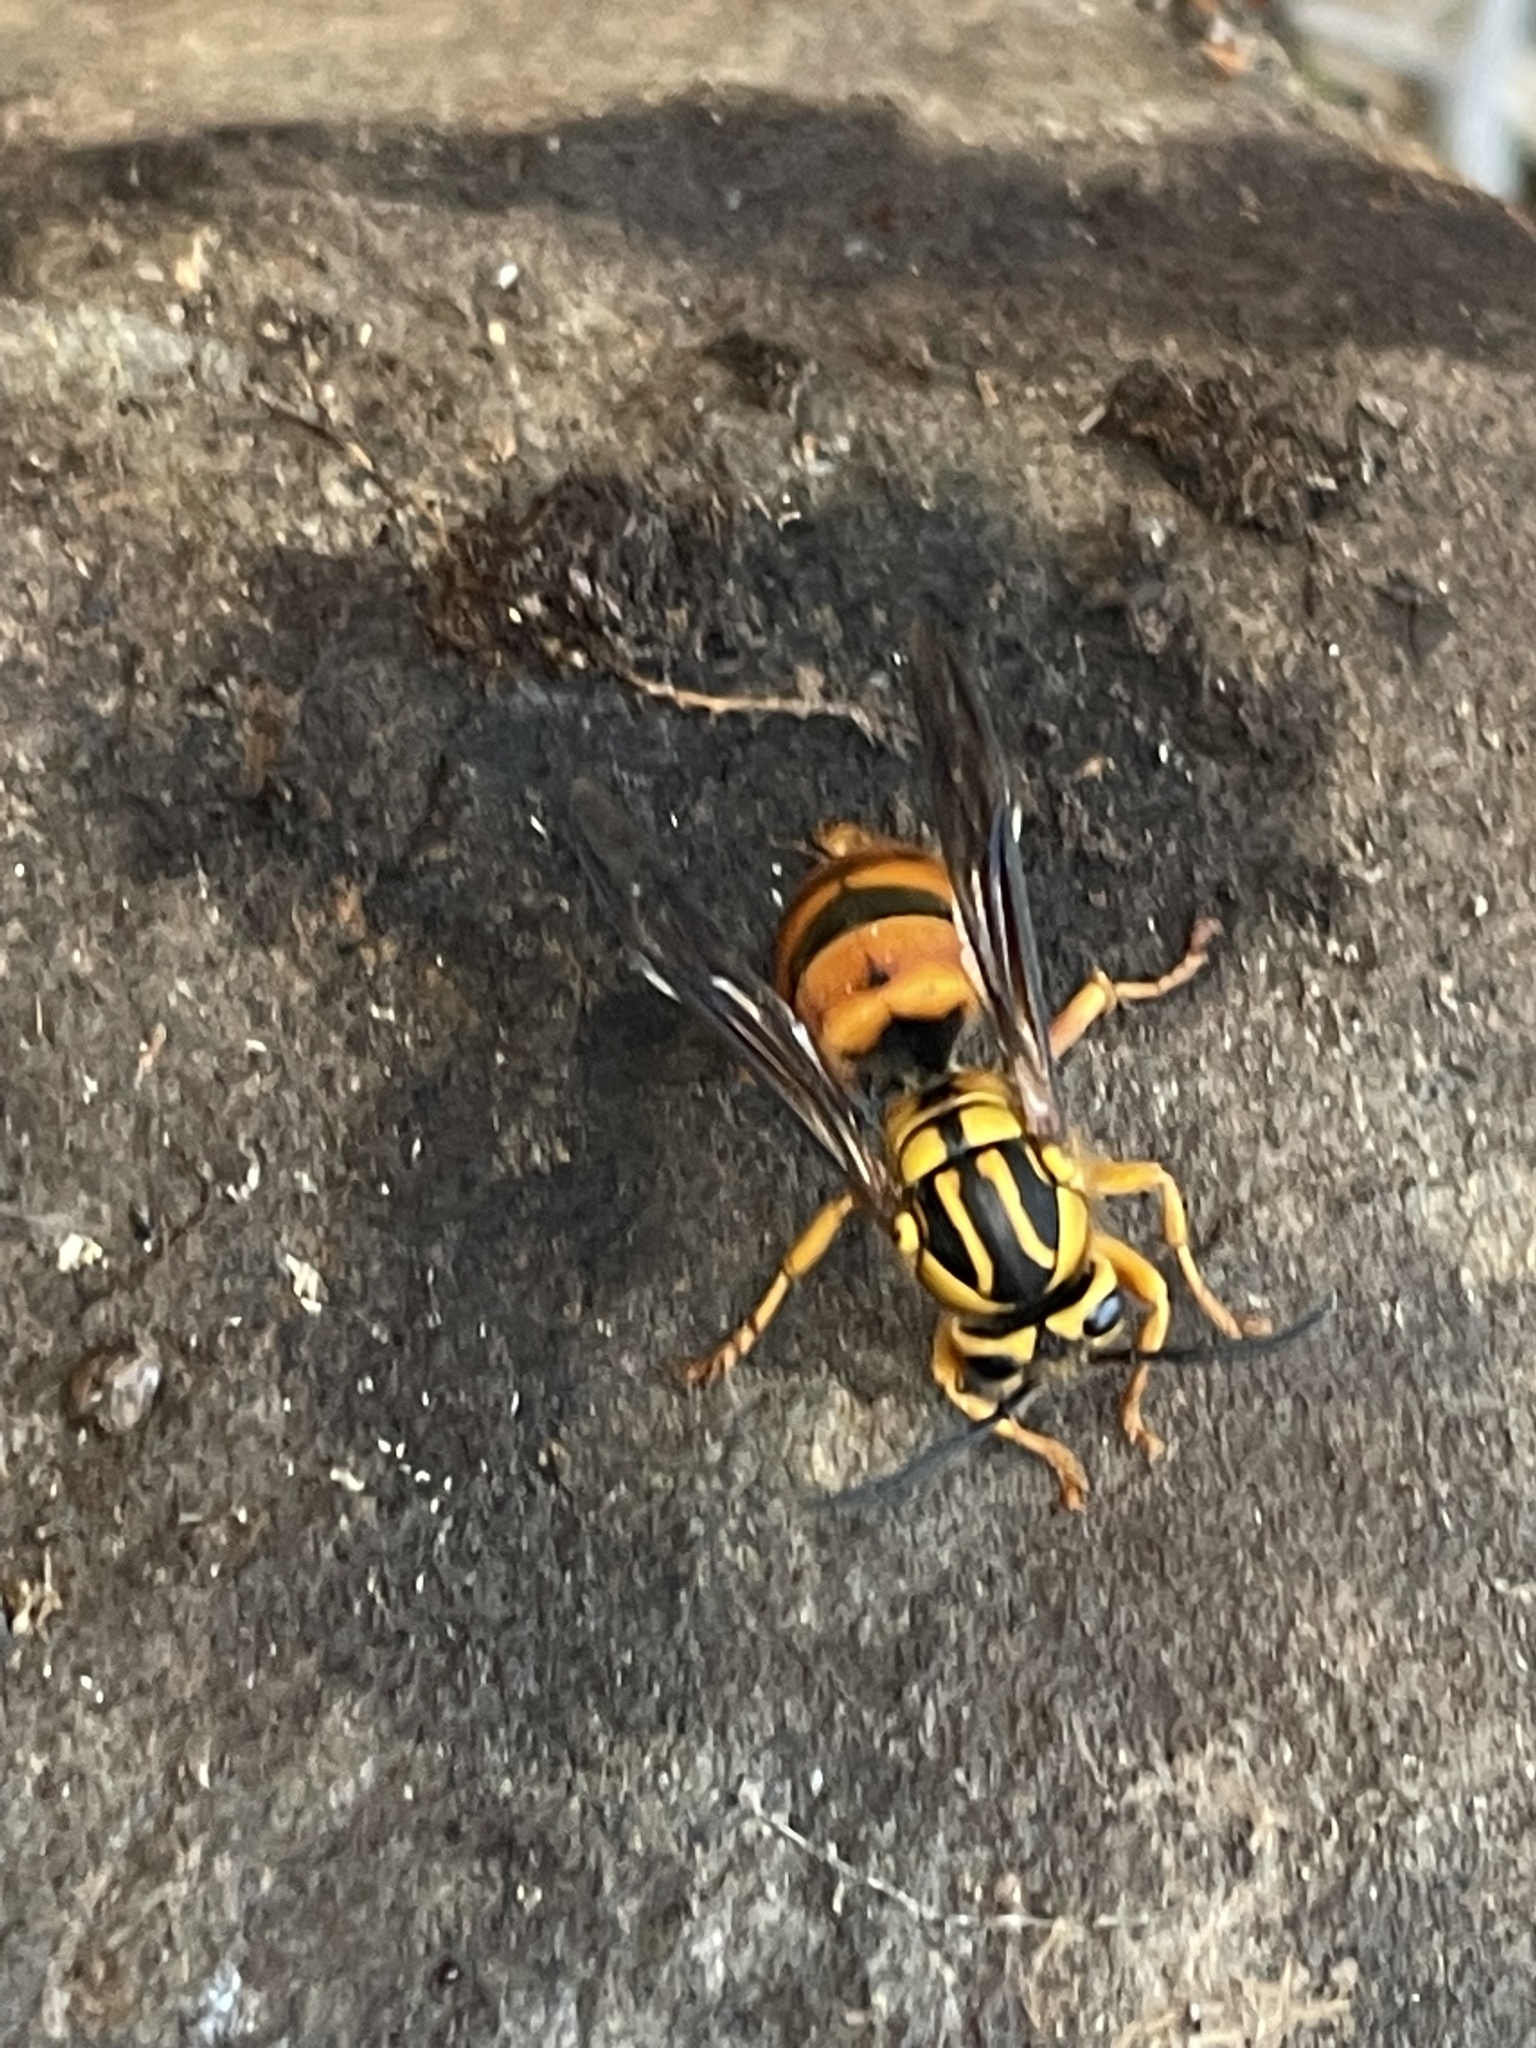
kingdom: Animalia
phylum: Arthropoda
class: Insecta
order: Hymenoptera
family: Vespidae
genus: Vespula
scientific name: Vespula squamosa
